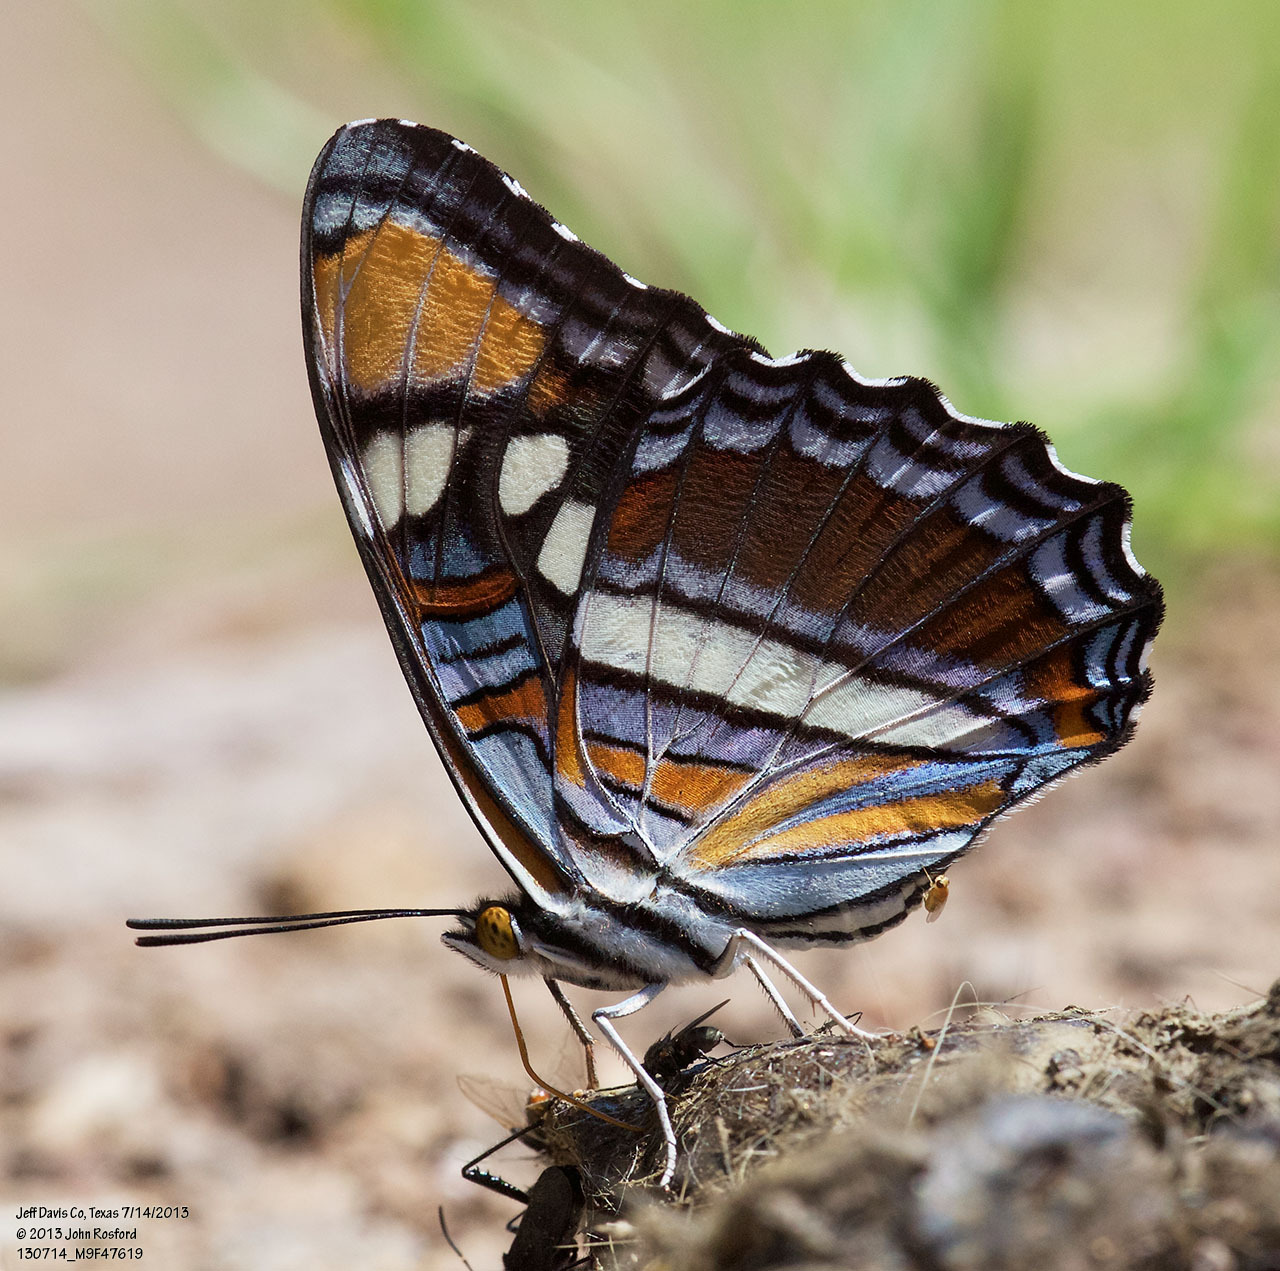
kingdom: Animalia
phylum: Arthropoda
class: Insecta
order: Lepidoptera
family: Nymphalidae
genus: Limenitis
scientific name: Limenitis bredowii
